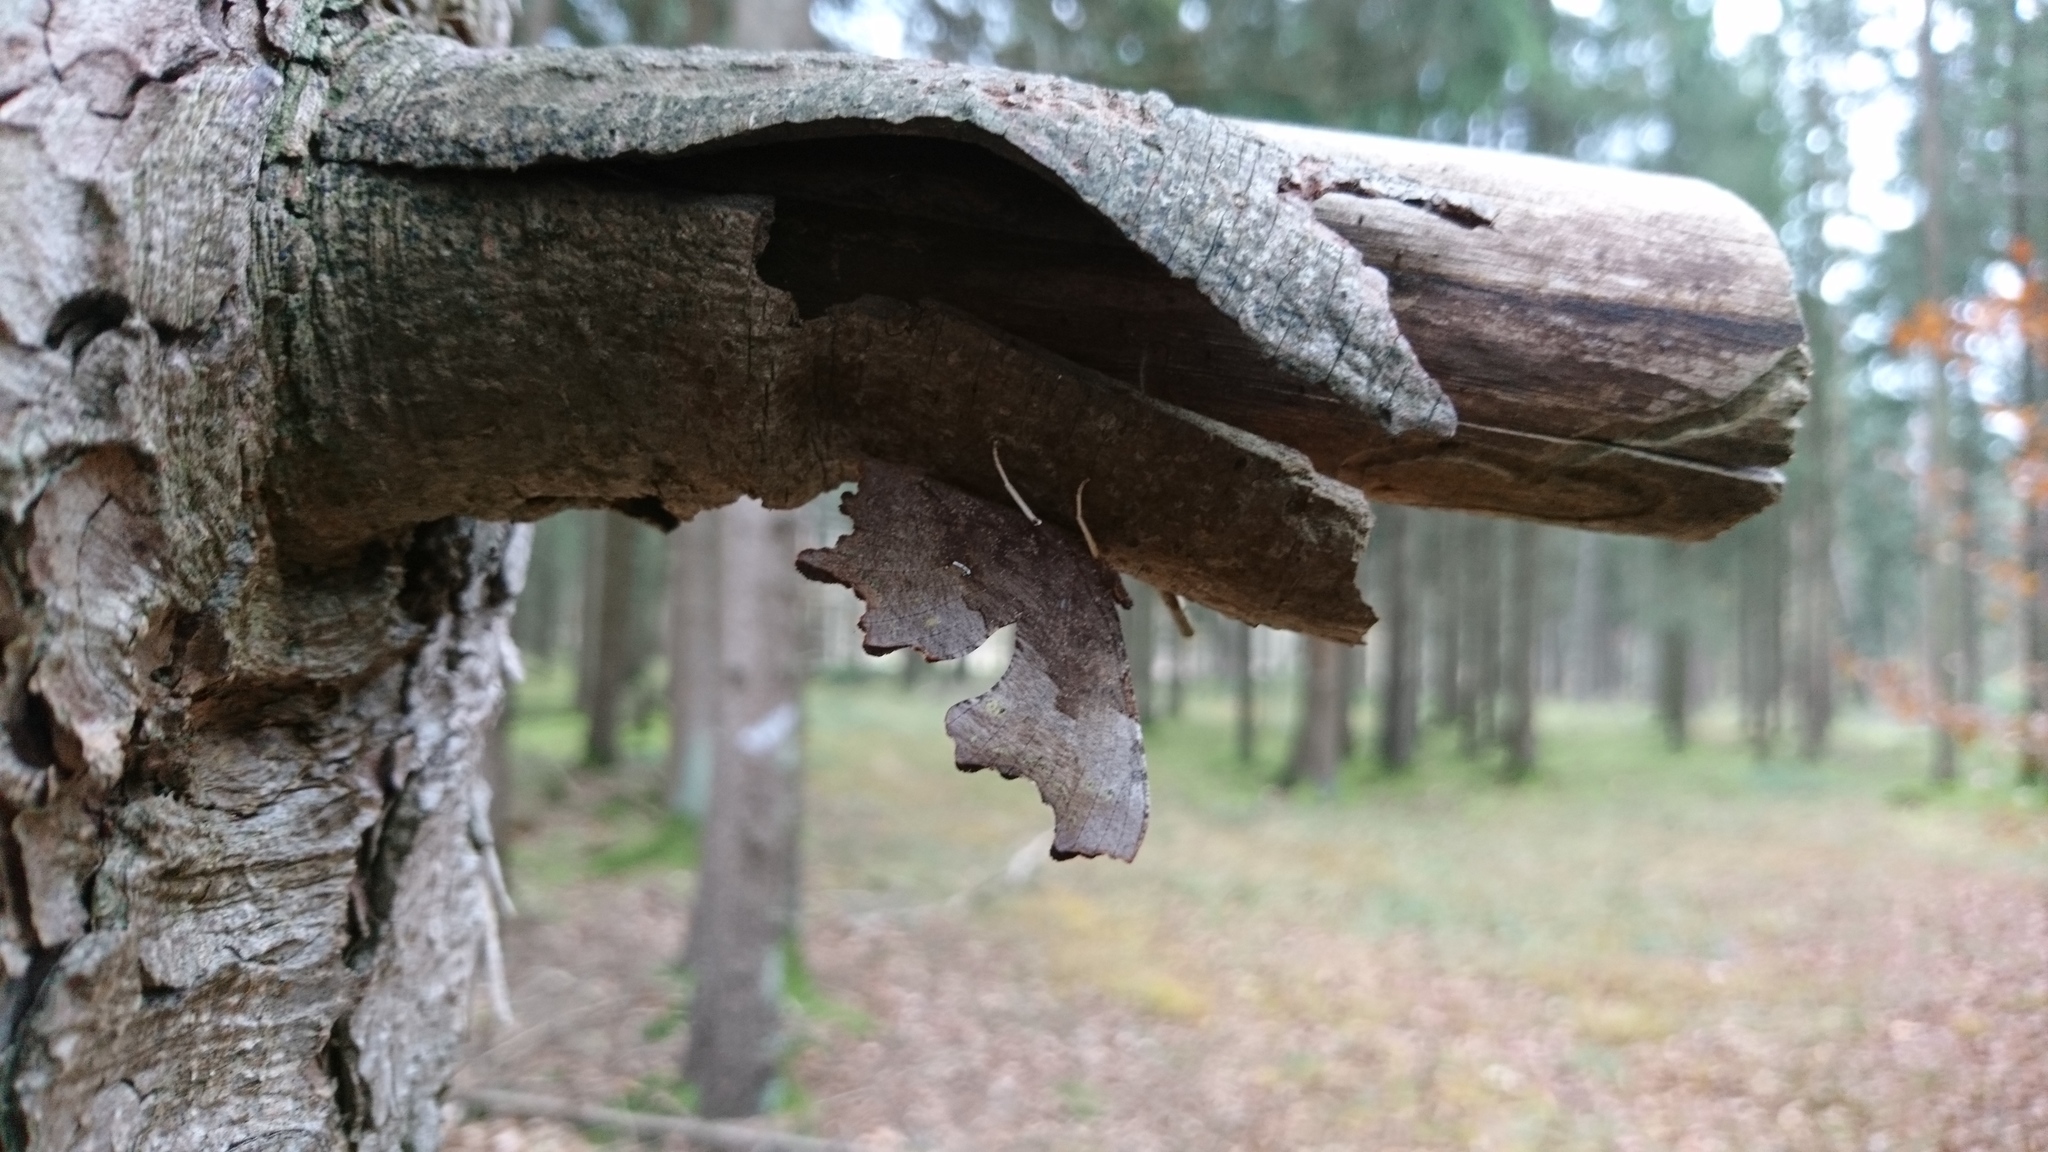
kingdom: Animalia
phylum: Arthropoda
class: Insecta
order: Lepidoptera
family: Nymphalidae
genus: Polygonia
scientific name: Polygonia c-album
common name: Comma
